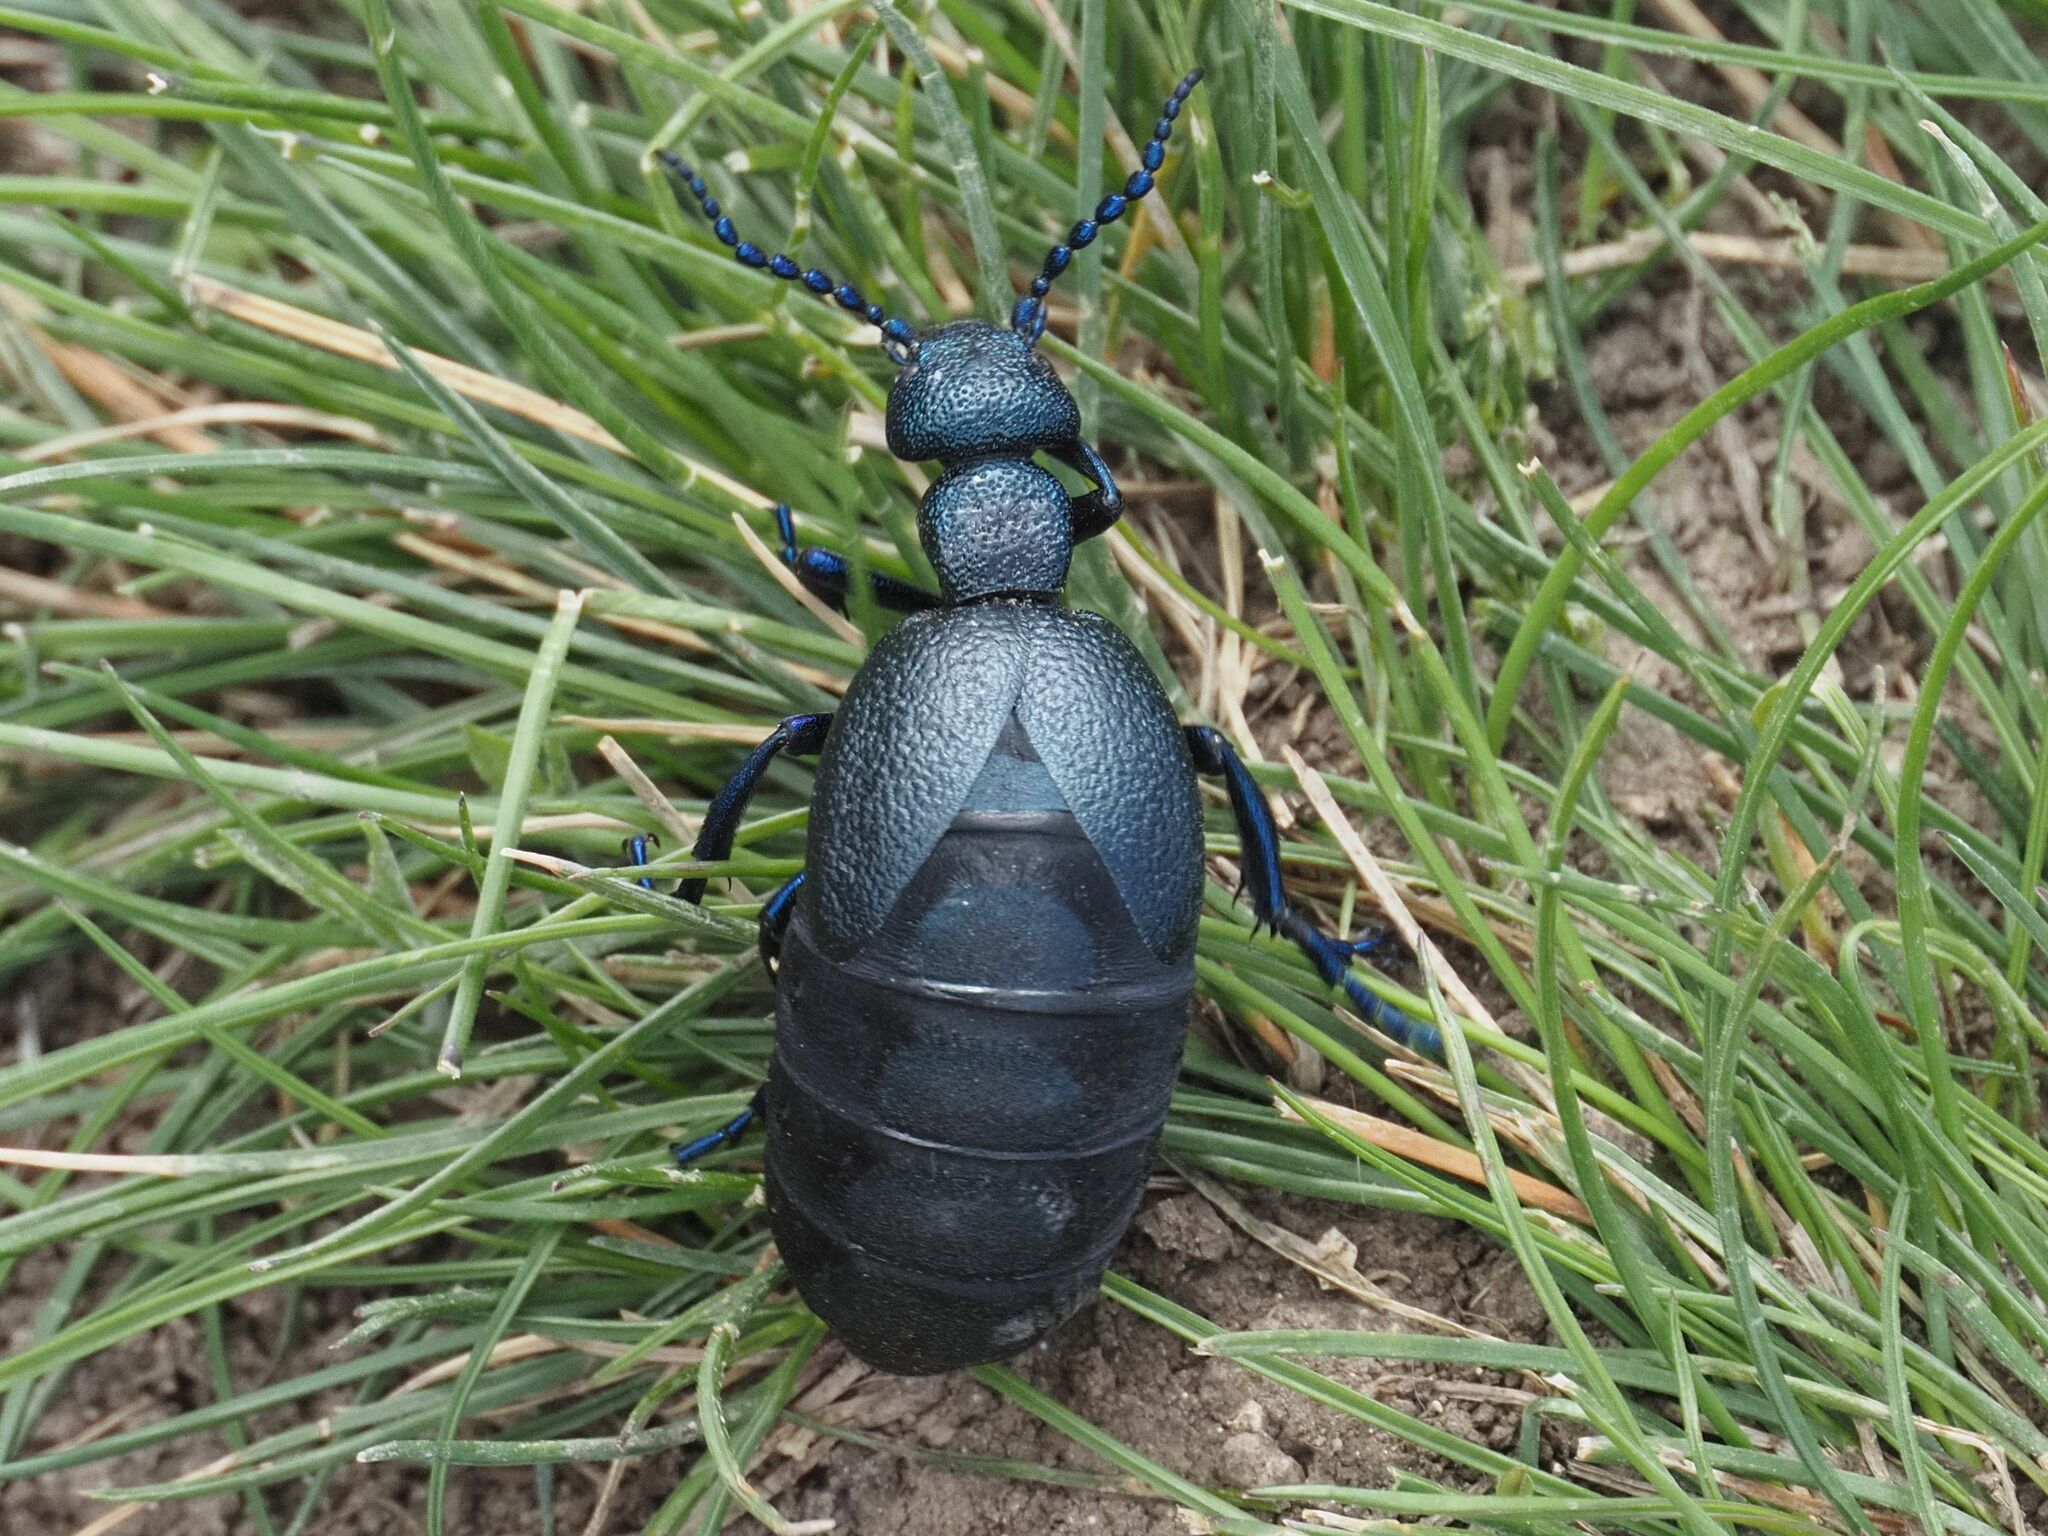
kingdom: Animalia
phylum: Arthropoda
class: Insecta
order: Coleoptera
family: Meloidae
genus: Meloe
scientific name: Meloe proscarabaeus
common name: Black oil-beetle
